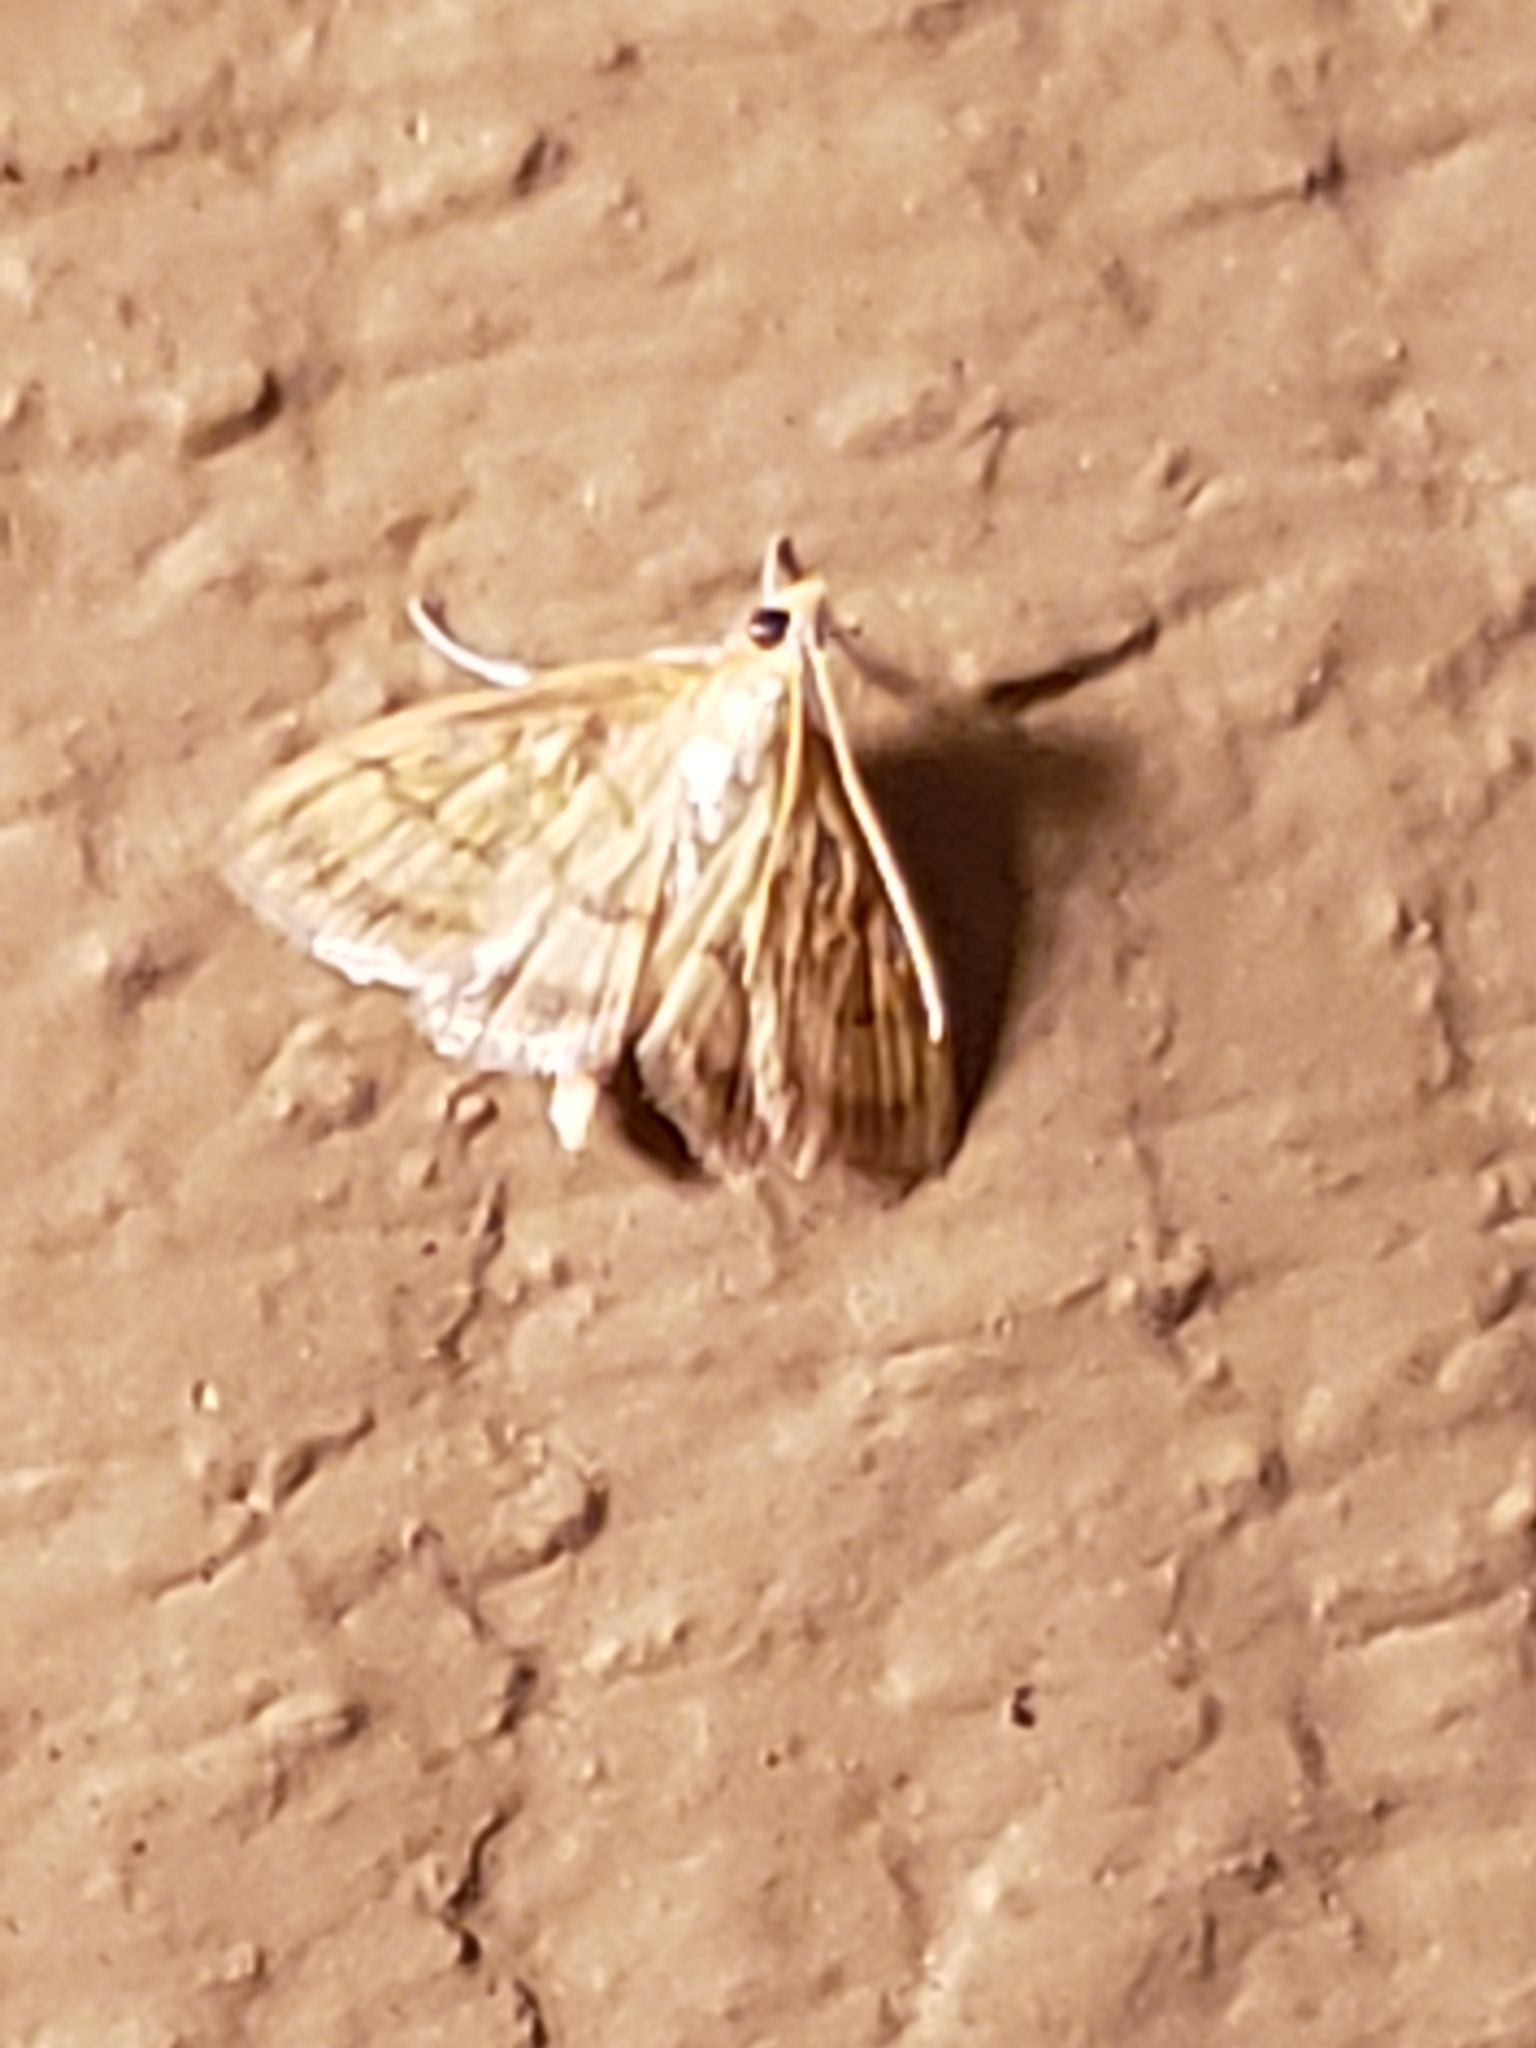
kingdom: Animalia
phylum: Arthropoda
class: Insecta
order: Lepidoptera
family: Crambidae
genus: Crocidophora
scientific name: Crocidophora tuberculalis
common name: Pale-winged crocidiphora moth
